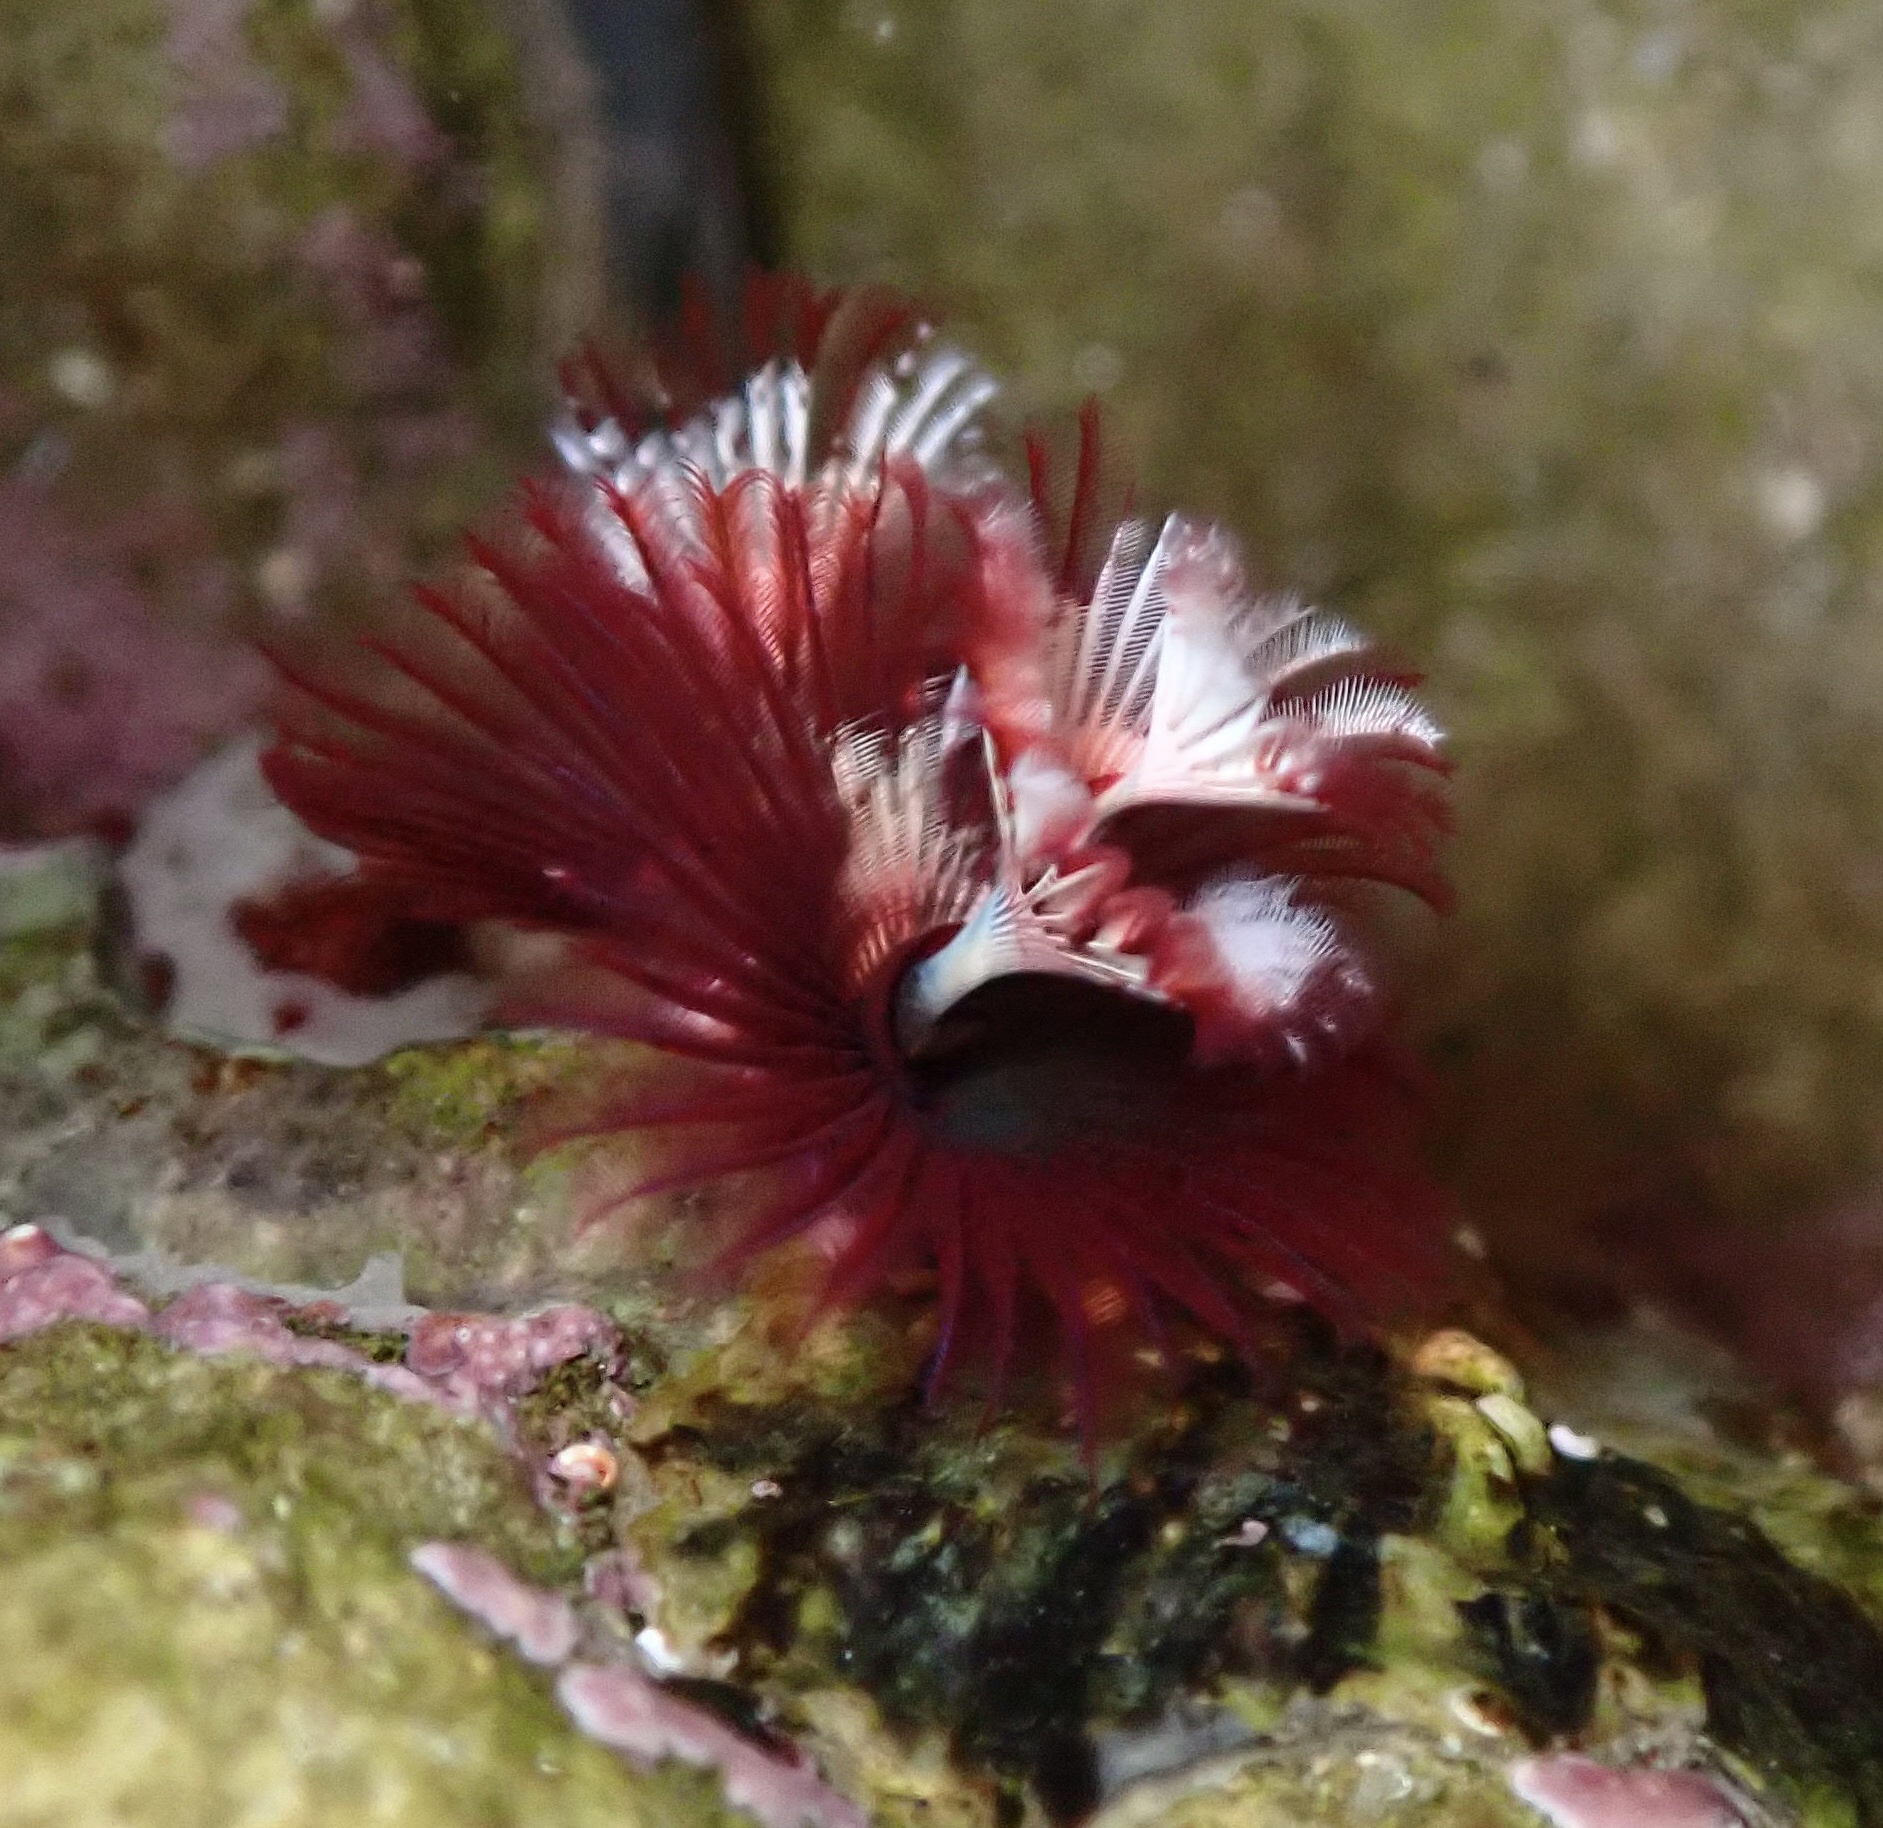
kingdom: Animalia
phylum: Annelida
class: Polychaeta
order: Sabellida
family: Serpulidae
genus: Spirobranchus
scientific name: Spirobranchus spinosus
